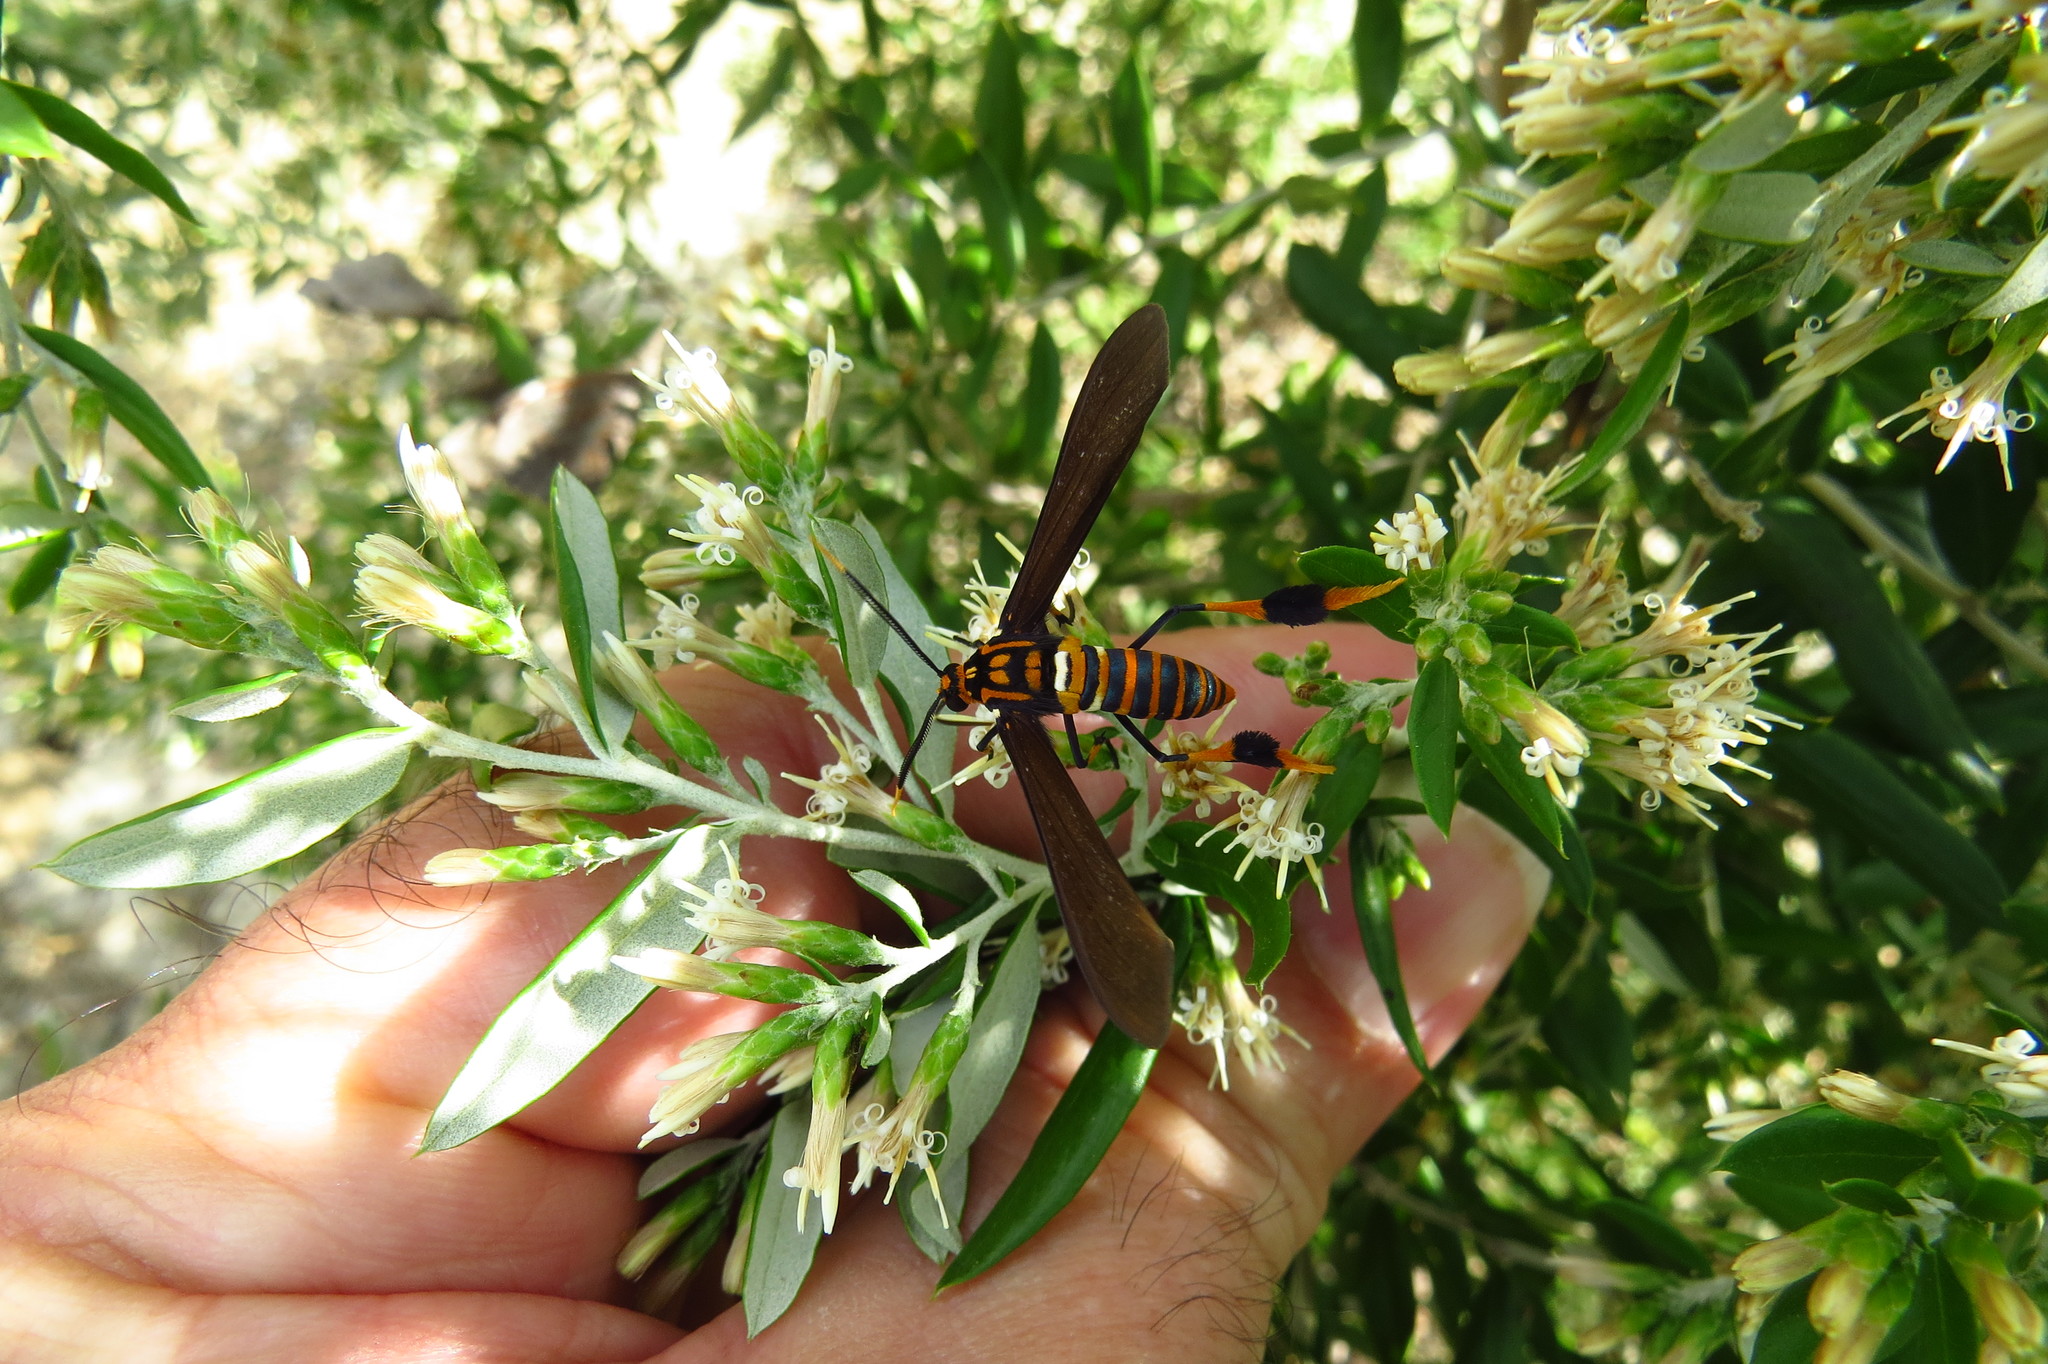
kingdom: Animalia
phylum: Arthropoda
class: Insecta
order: Lepidoptera
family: Erebidae
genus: Horama
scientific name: Horama panthalon
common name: Texas wasp moth
